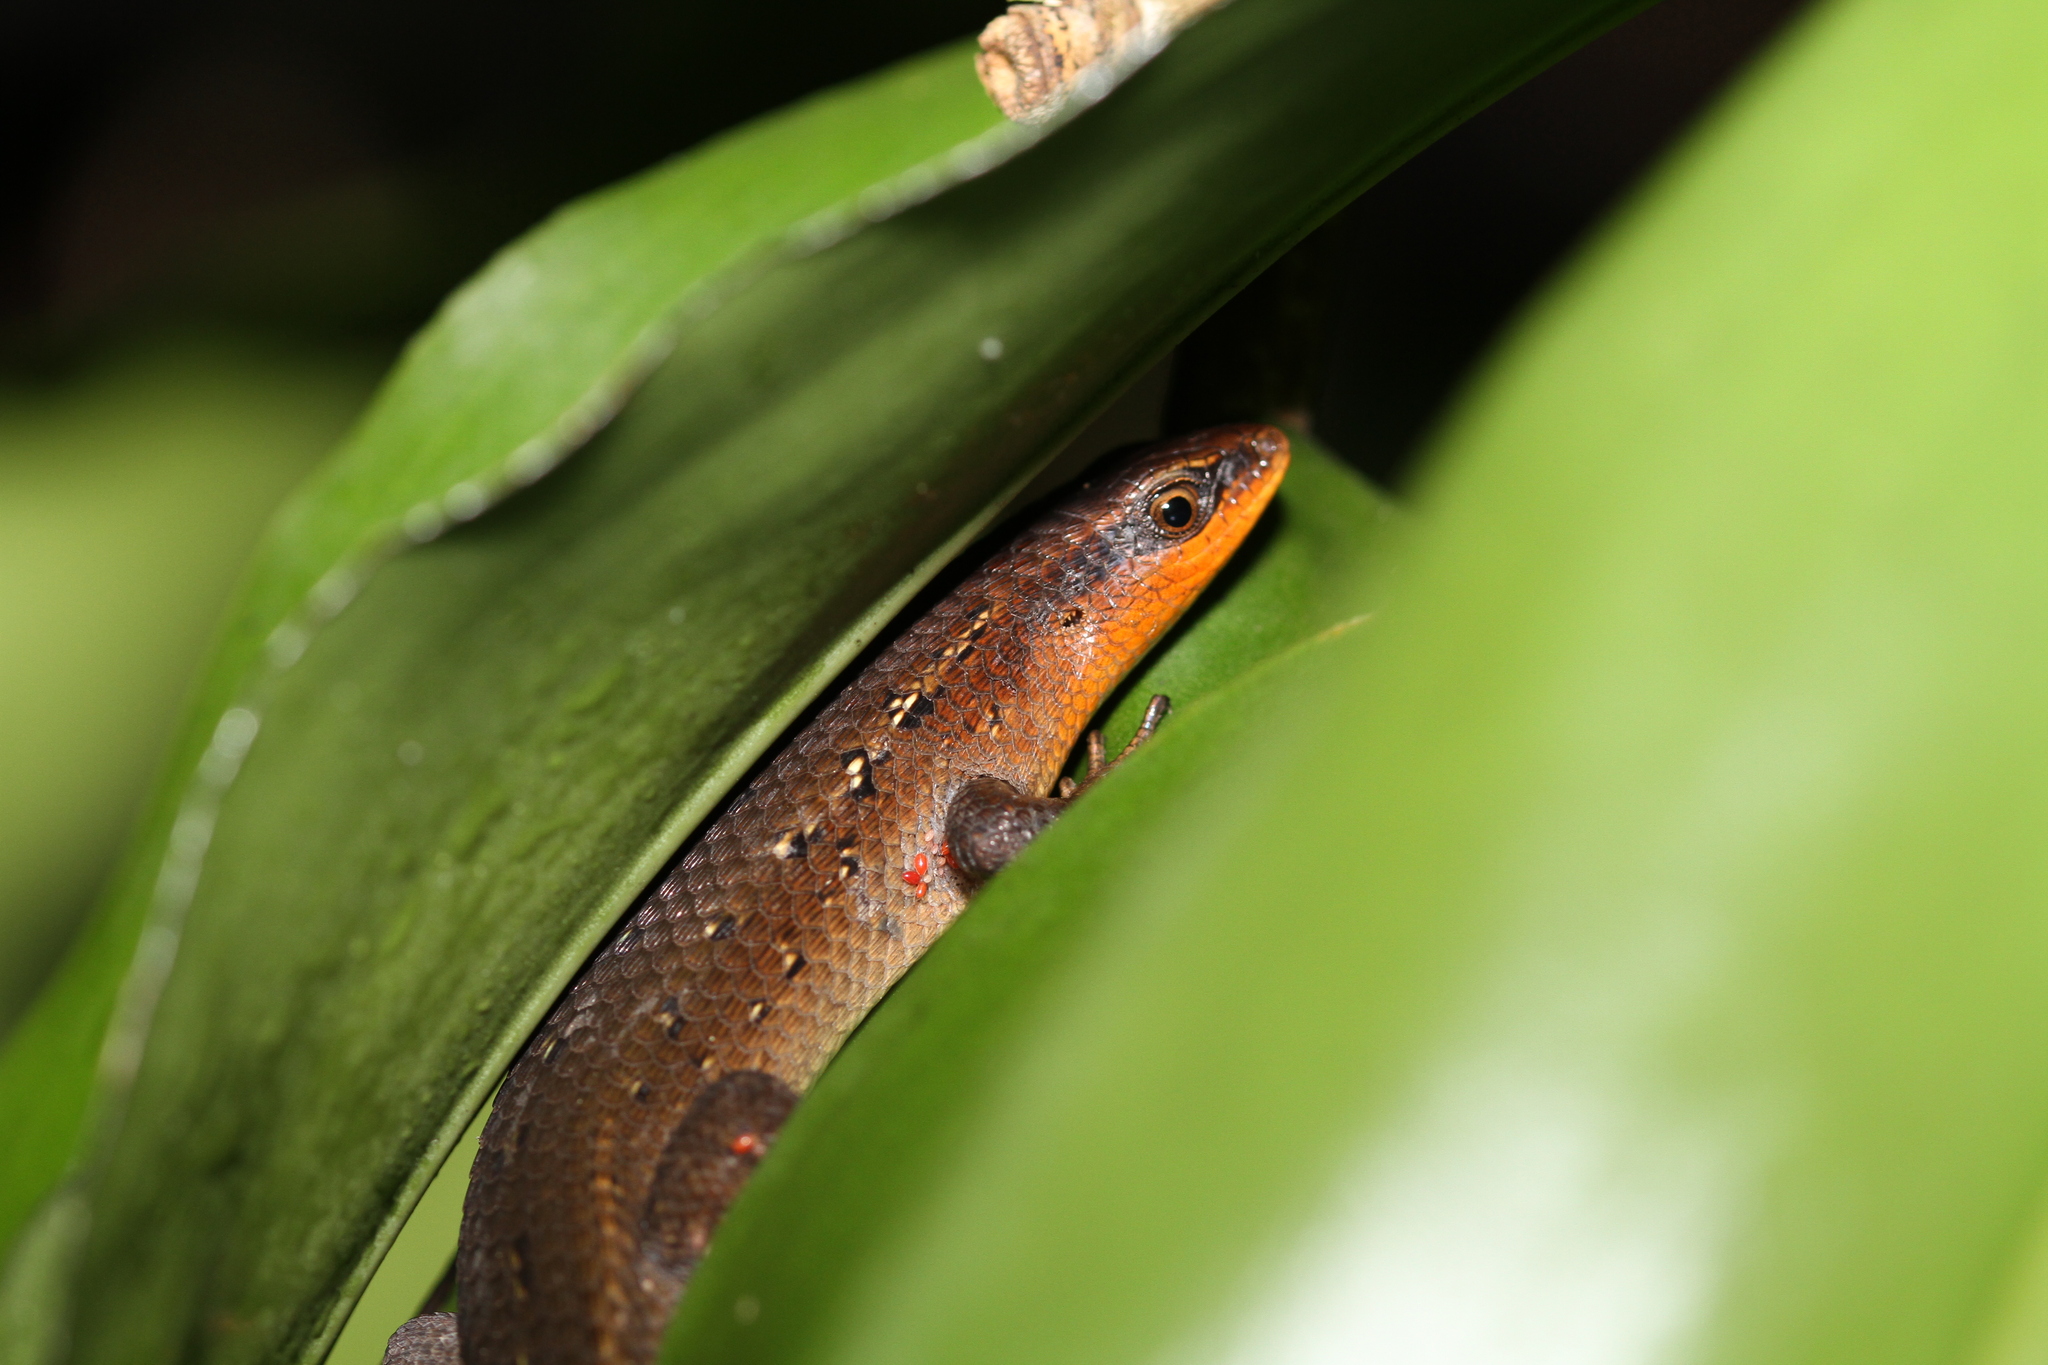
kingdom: Animalia
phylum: Chordata
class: Squamata
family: Scincidae
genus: Eutropis
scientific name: Eutropis multifasciata
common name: Common mabuya
